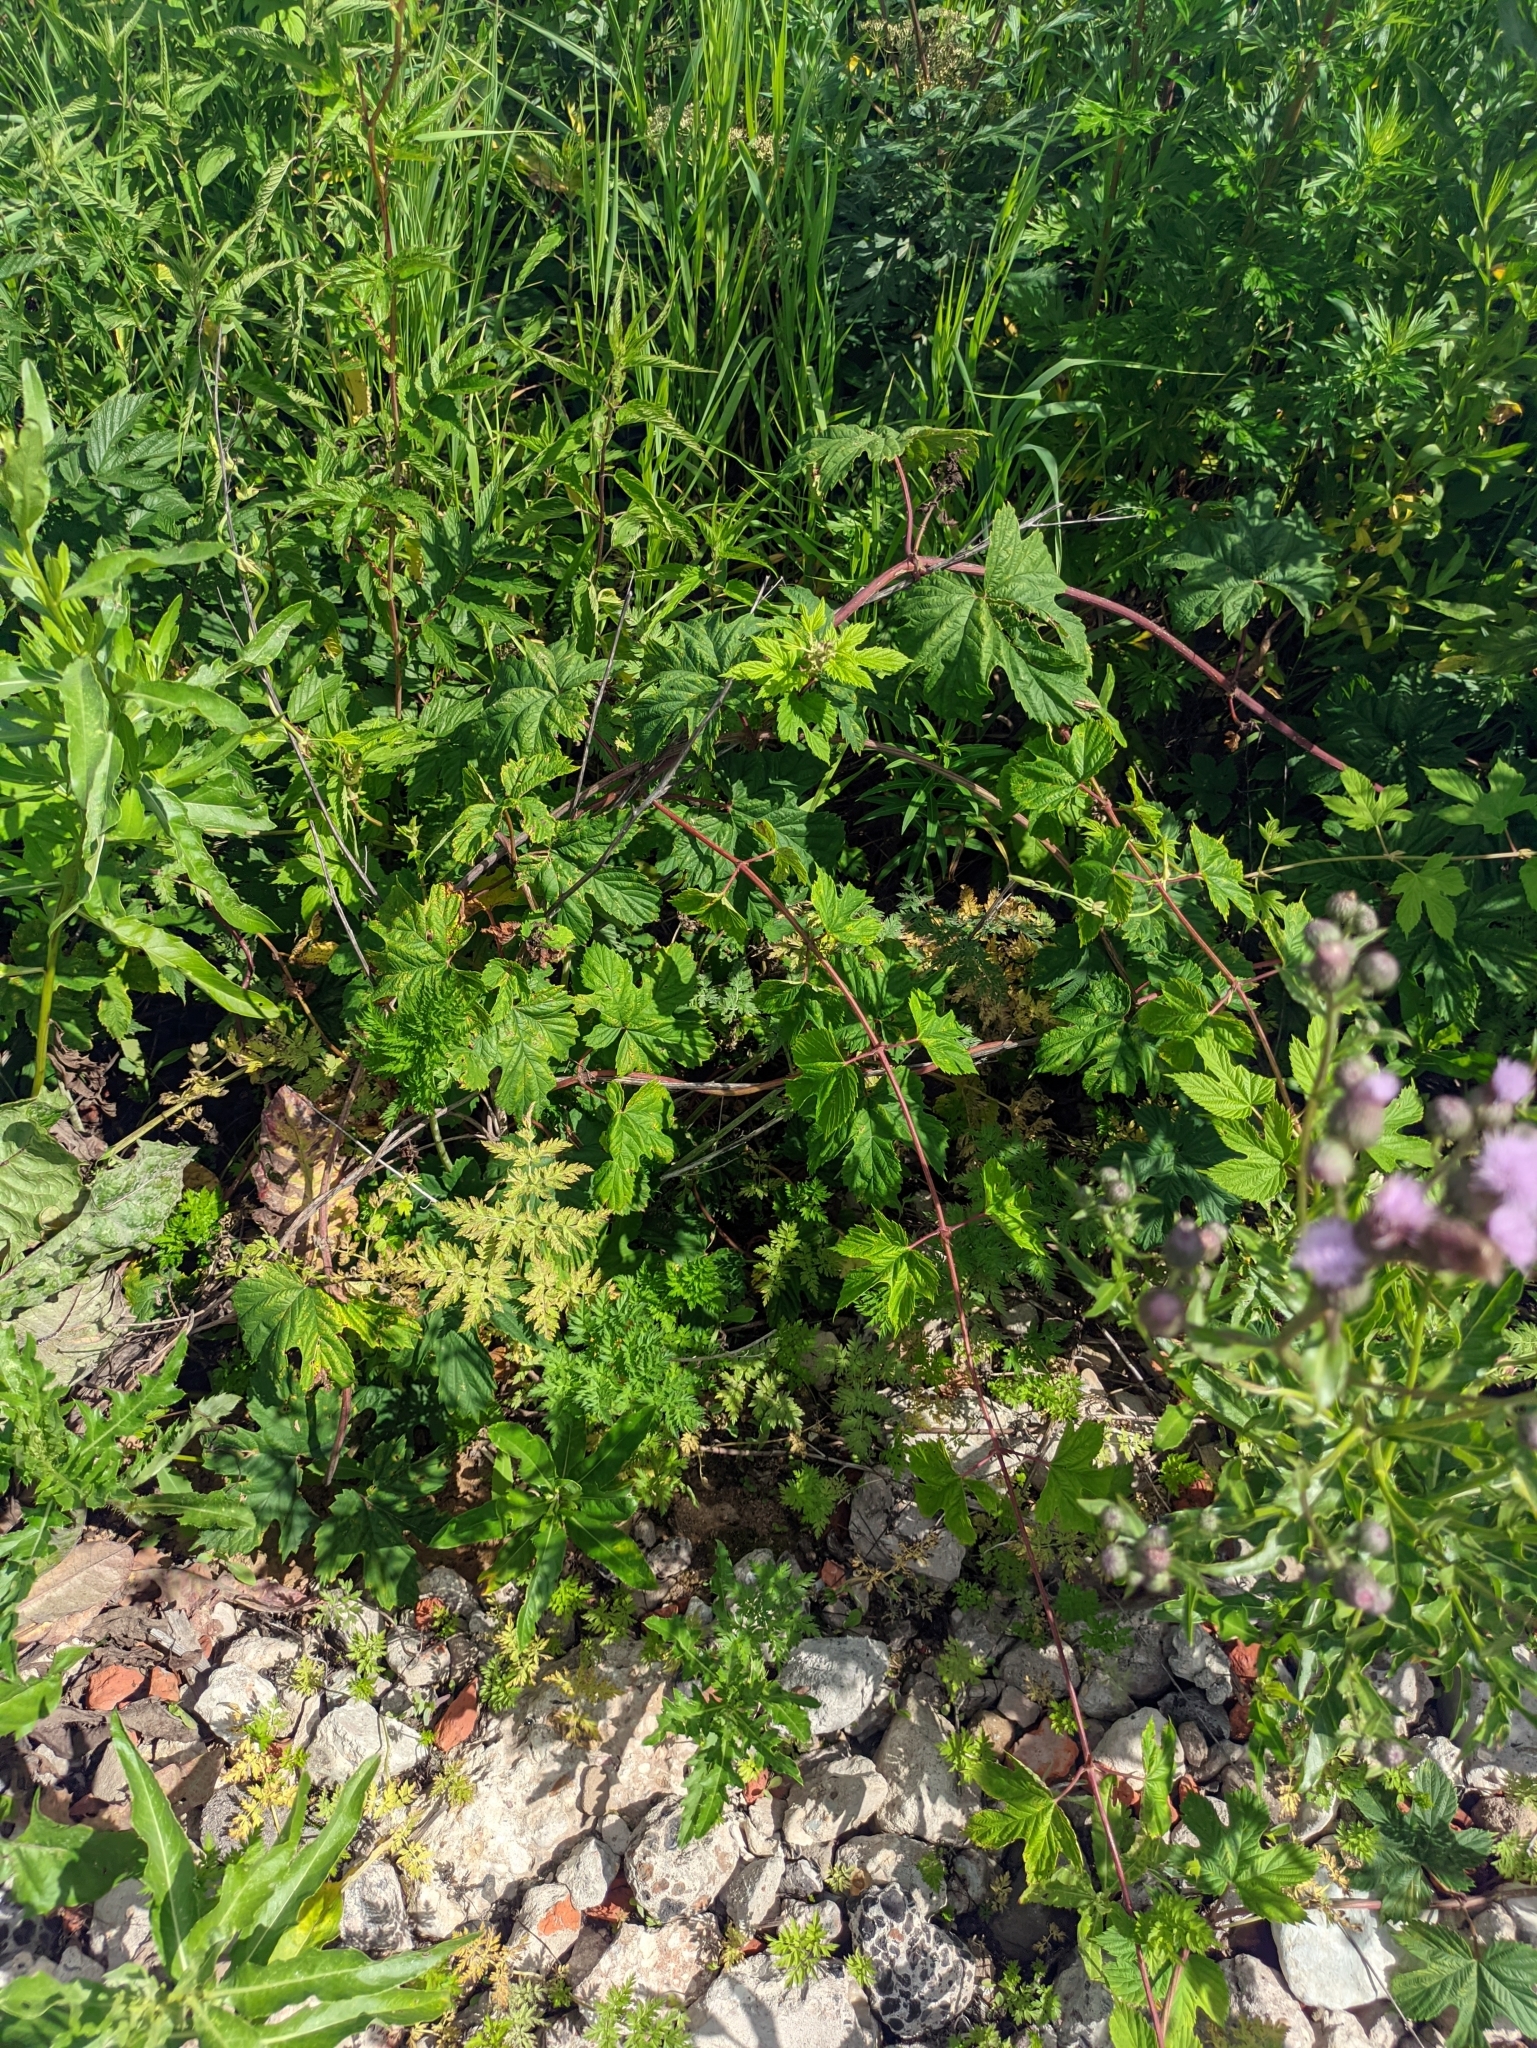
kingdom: Plantae
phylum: Tracheophyta
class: Magnoliopsida
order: Rosales
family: Cannabaceae
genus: Humulus
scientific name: Humulus lupulus
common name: Hop
